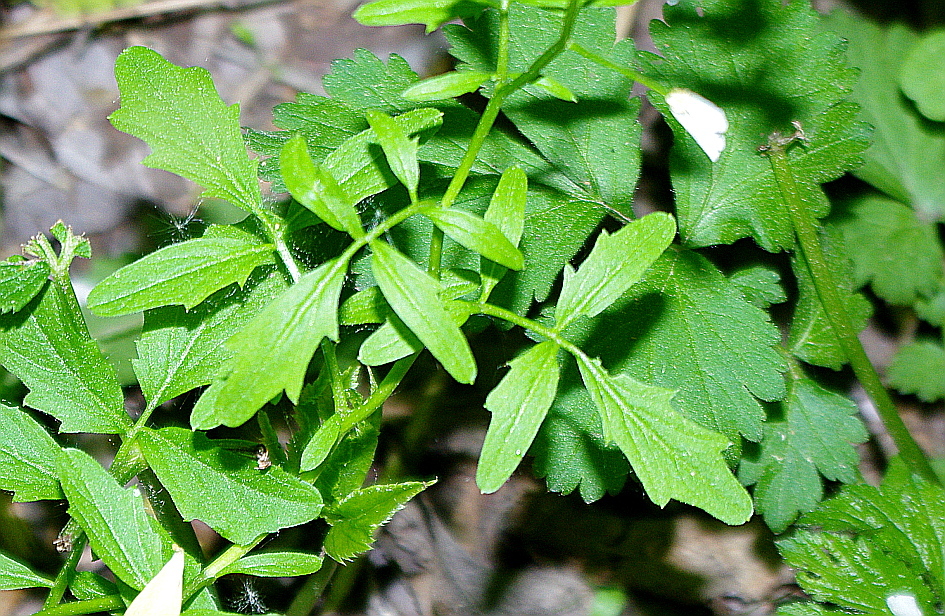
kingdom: Plantae
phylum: Tracheophyta
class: Magnoliopsida
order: Brassicales
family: Brassicaceae
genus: Cardamine
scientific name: Cardamine amara
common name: Large bitter-cress
